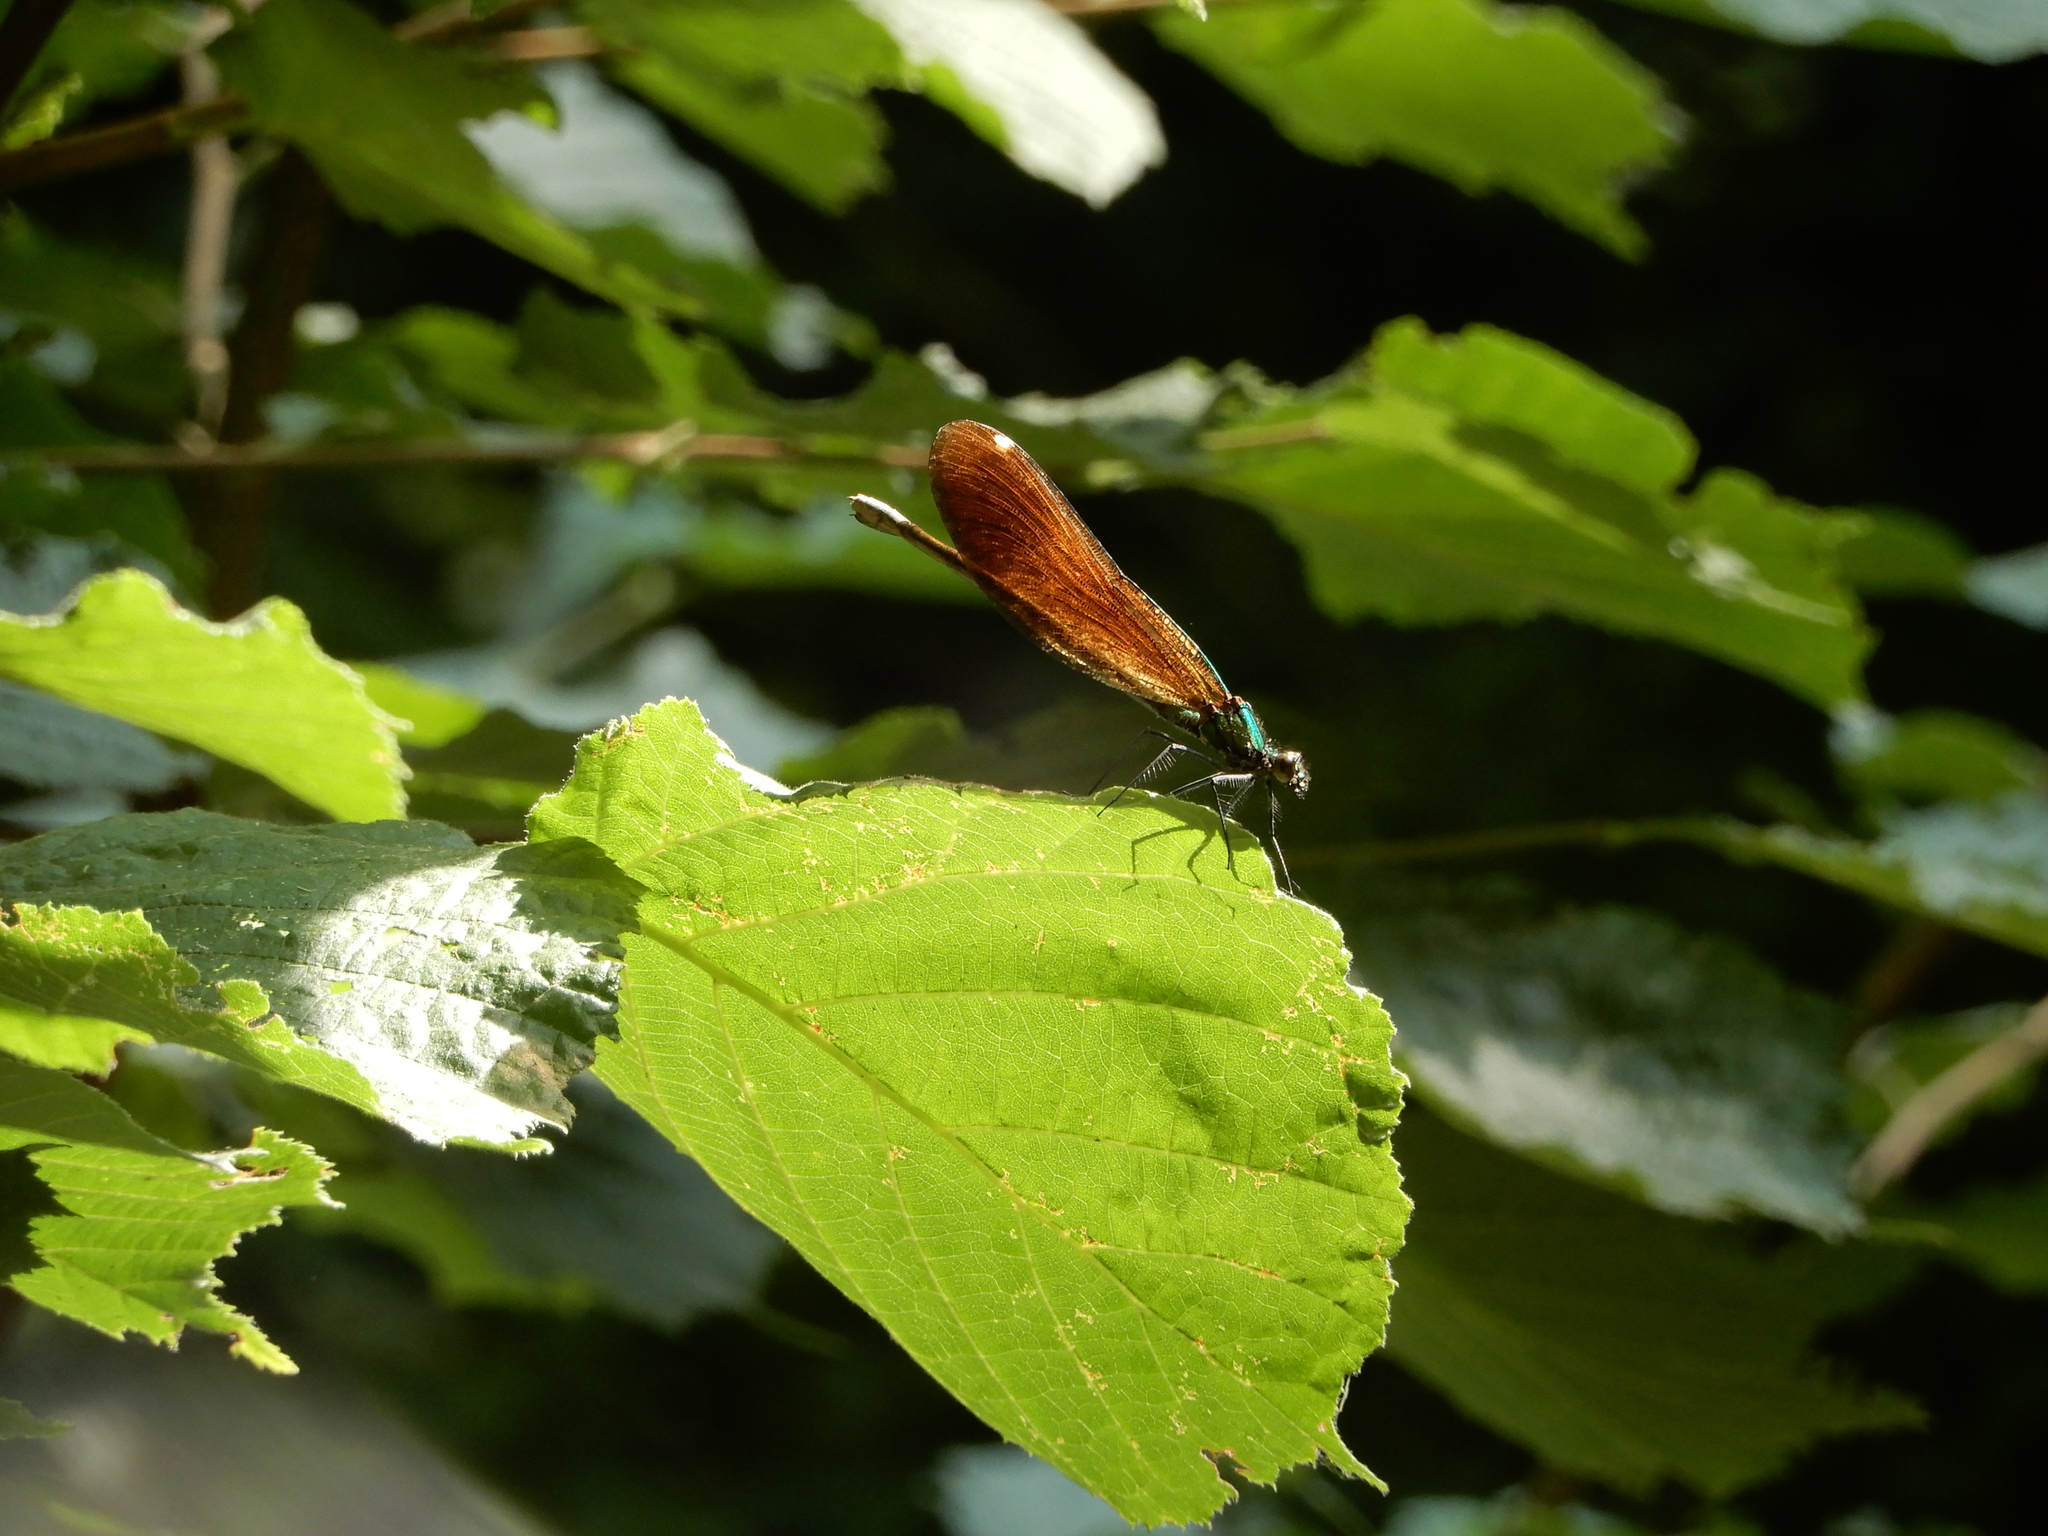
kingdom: Animalia
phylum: Arthropoda
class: Insecta
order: Odonata
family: Calopterygidae
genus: Calopteryx
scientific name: Calopteryx virgo
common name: Beautiful demoiselle
